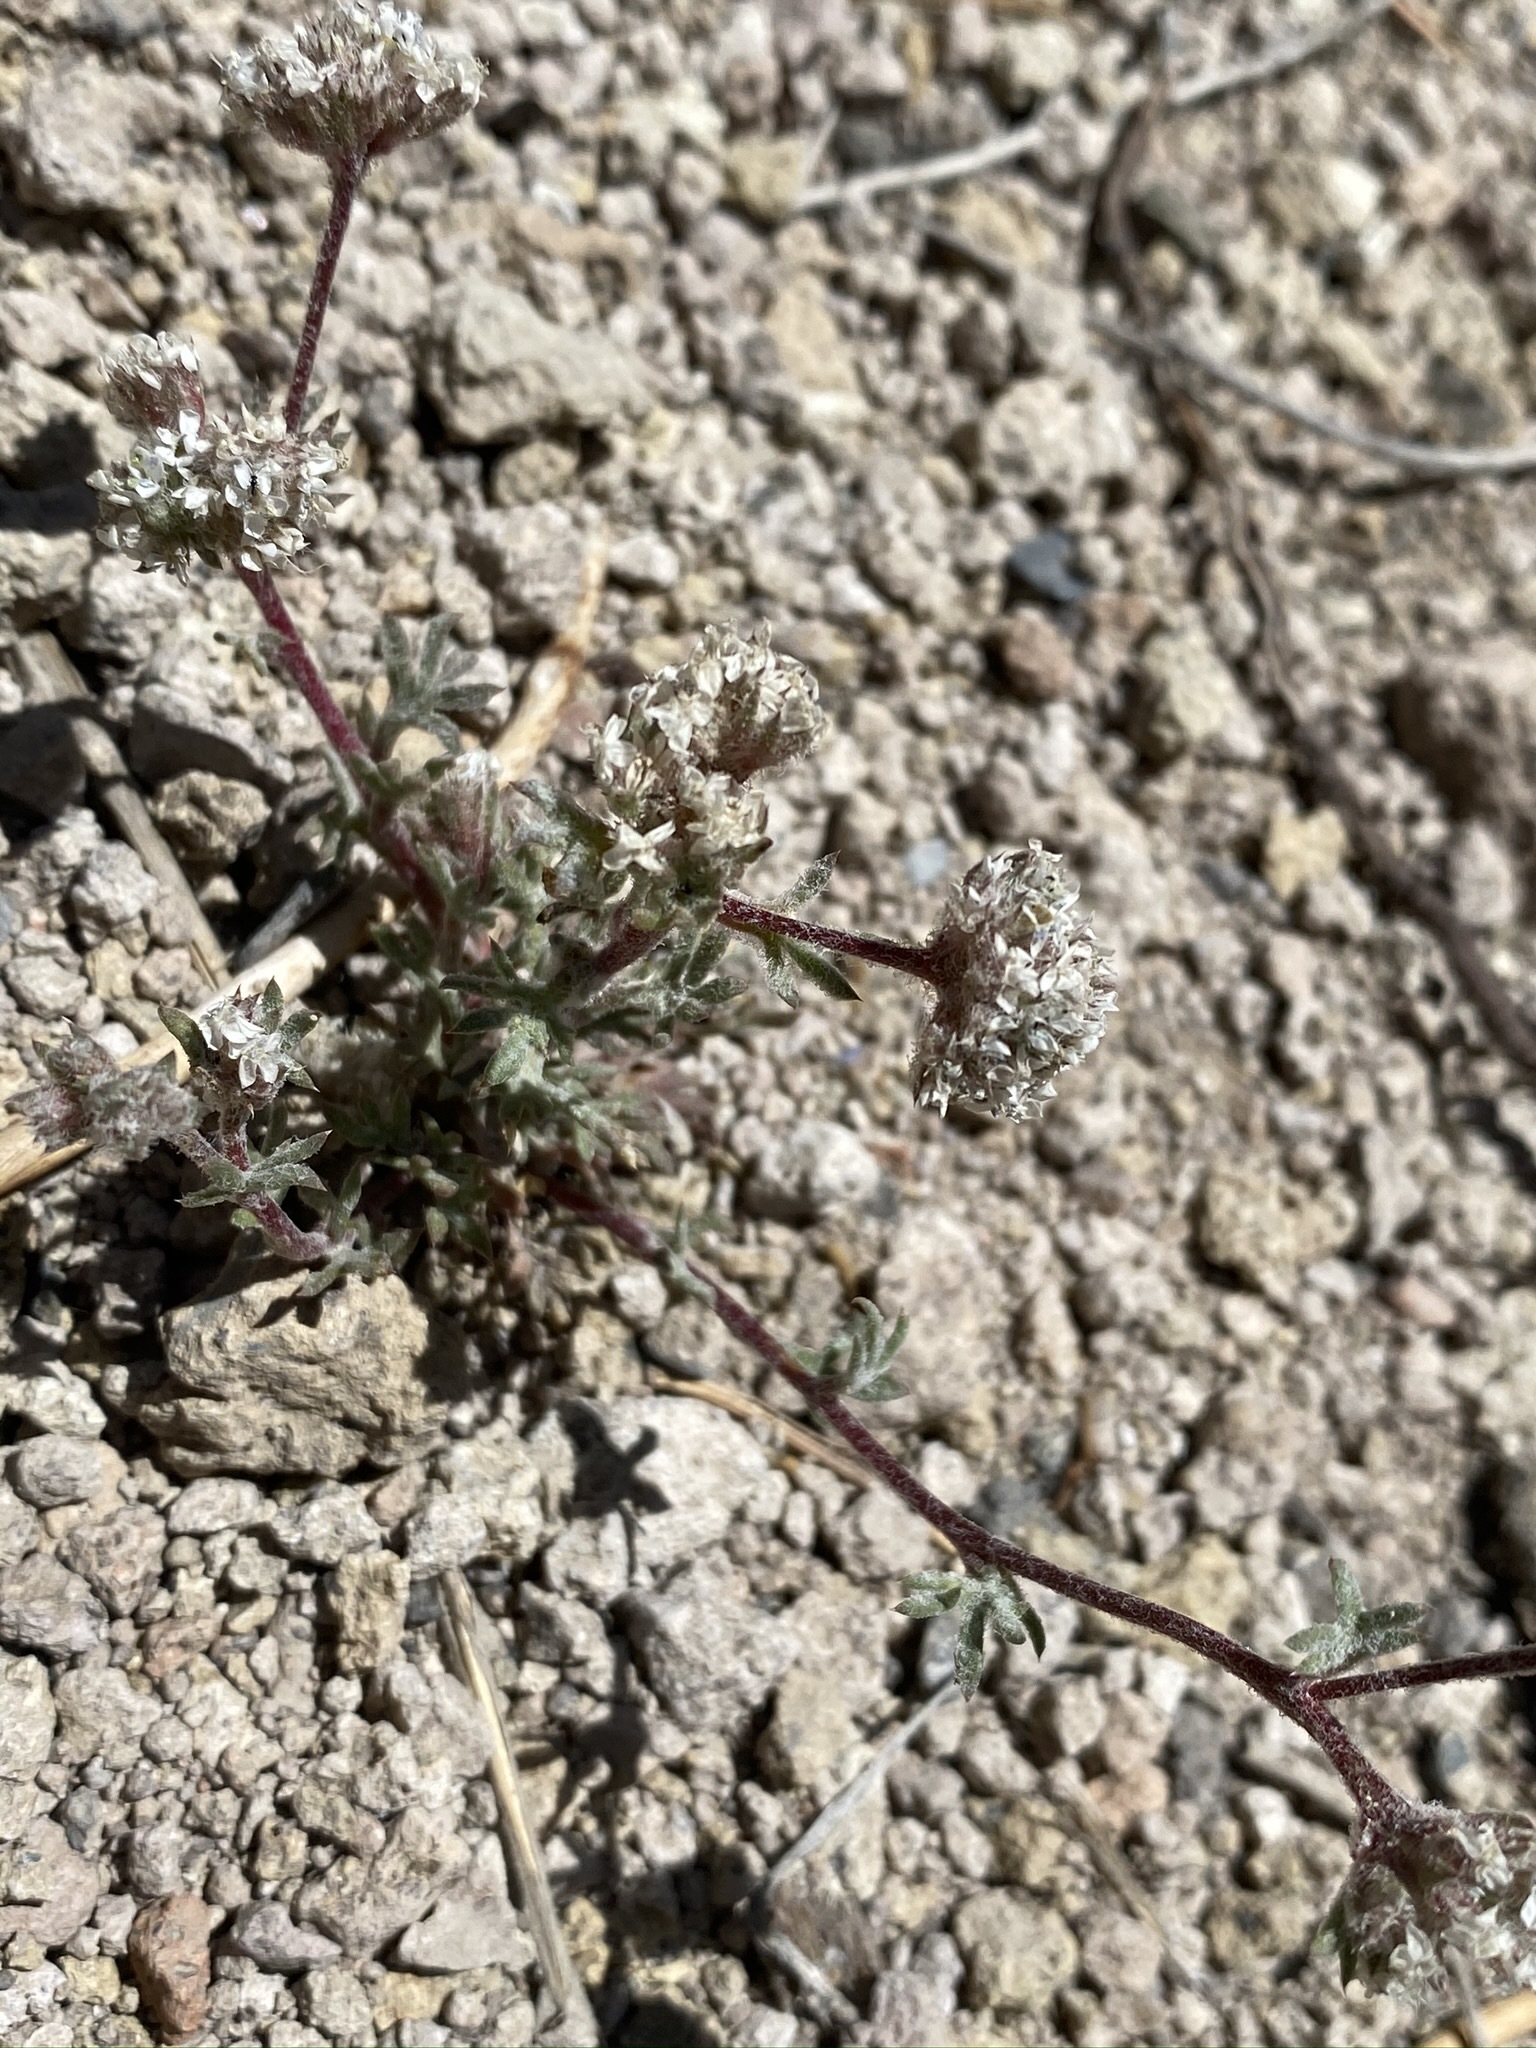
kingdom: Plantae
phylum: Tracheophyta
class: Magnoliopsida
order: Ericales
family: Polemoniaceae
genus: Ipomopsis
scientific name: Ipomopsis congesta
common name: Ball-head gilia
